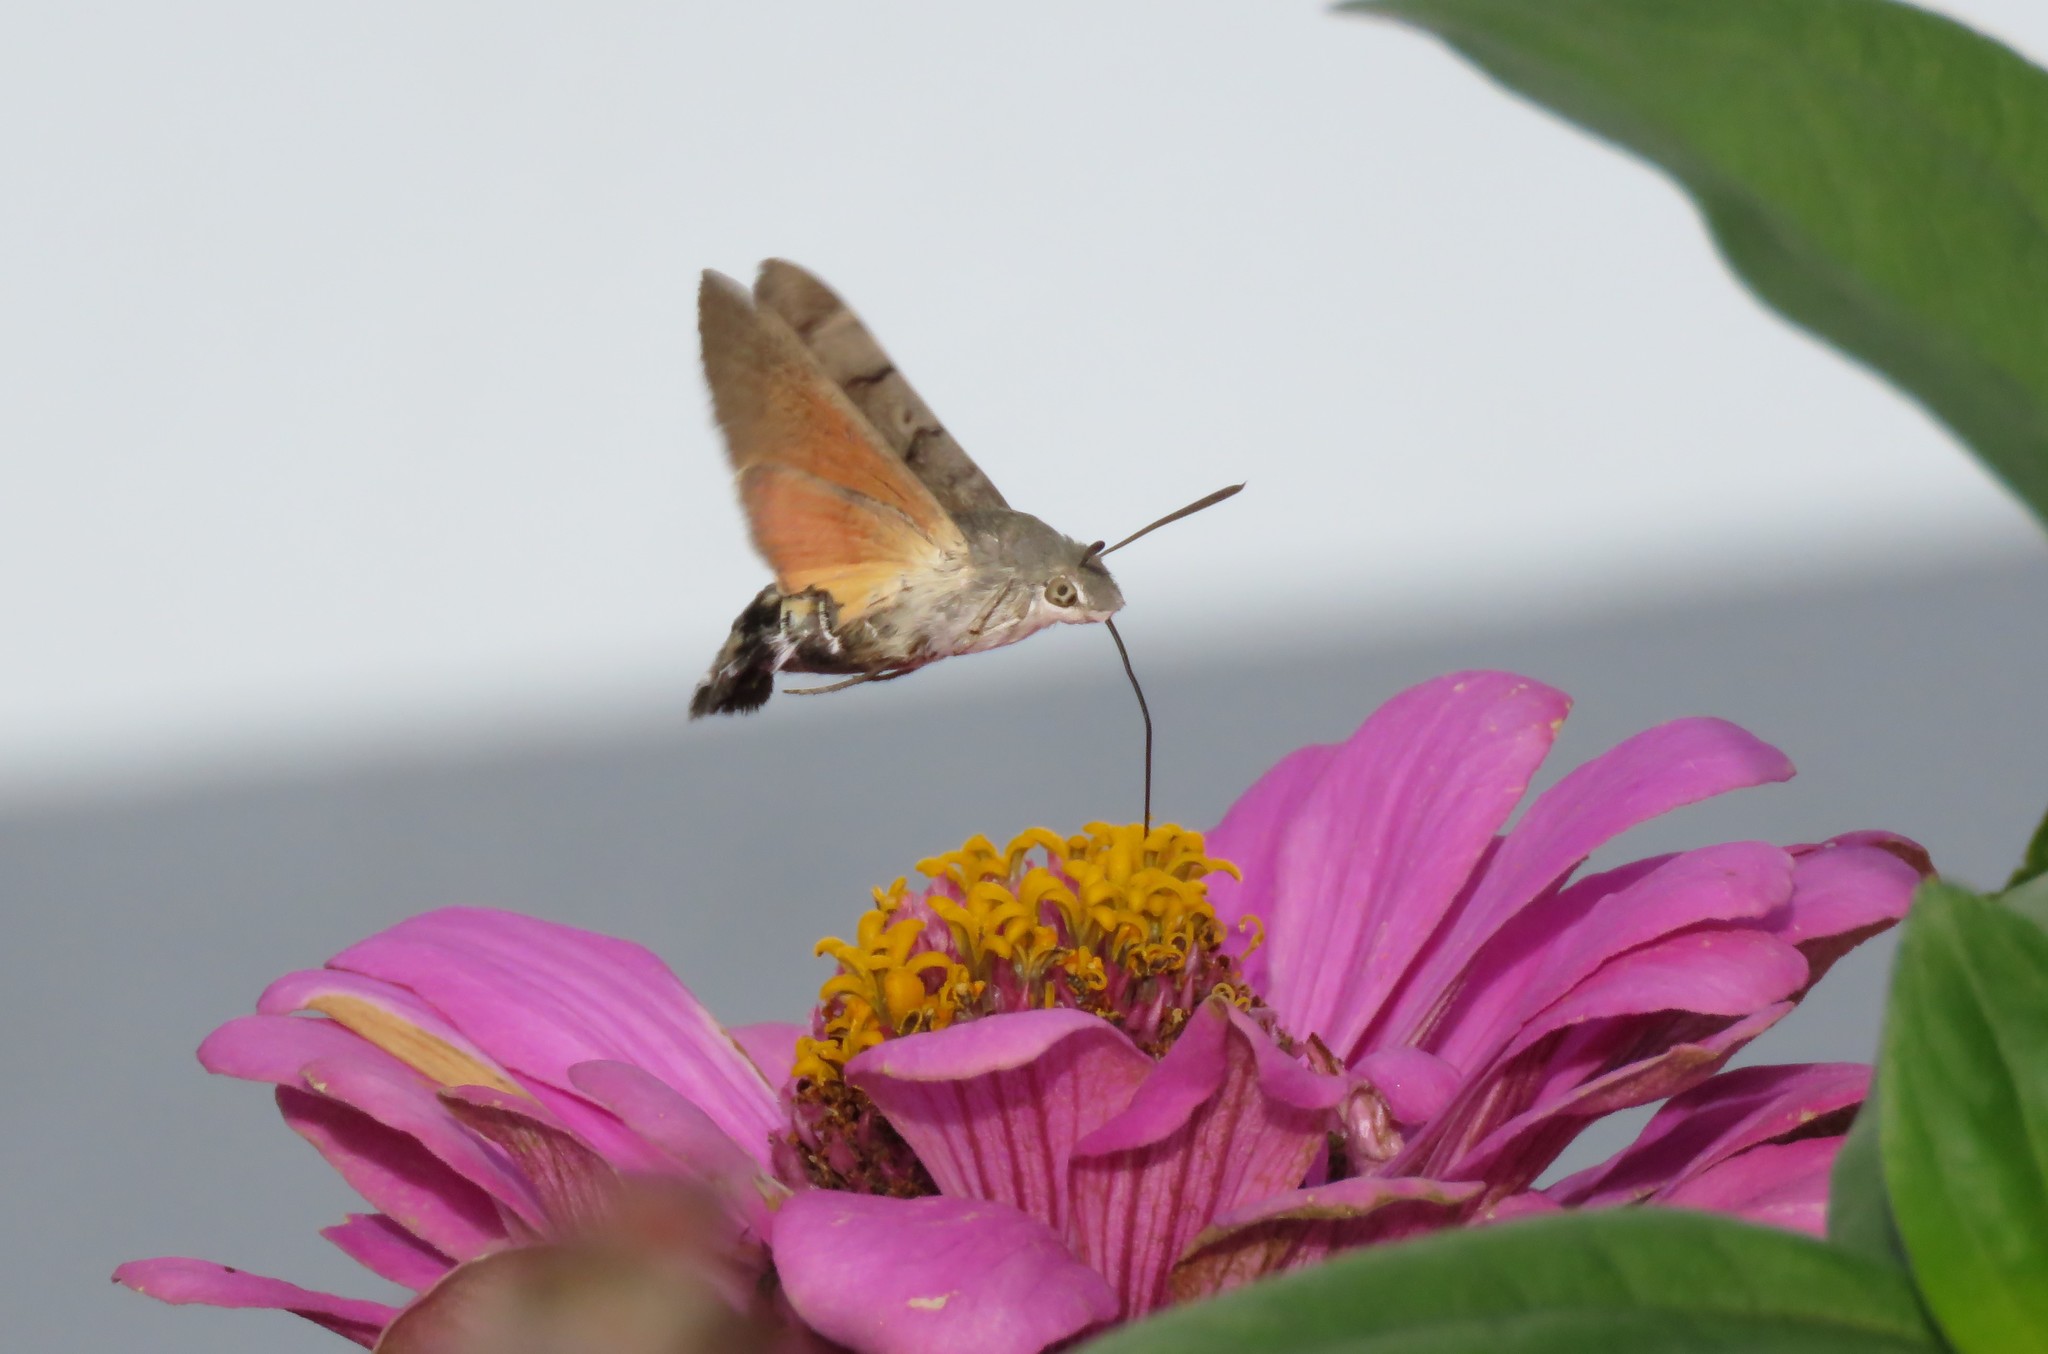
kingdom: Animalia
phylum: Arthropoda
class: Insecta
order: Lepidoptera
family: Sphingidae
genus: Macroglossum
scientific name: Macroglossum stellatarum
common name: Humming-bird hawk-moth
